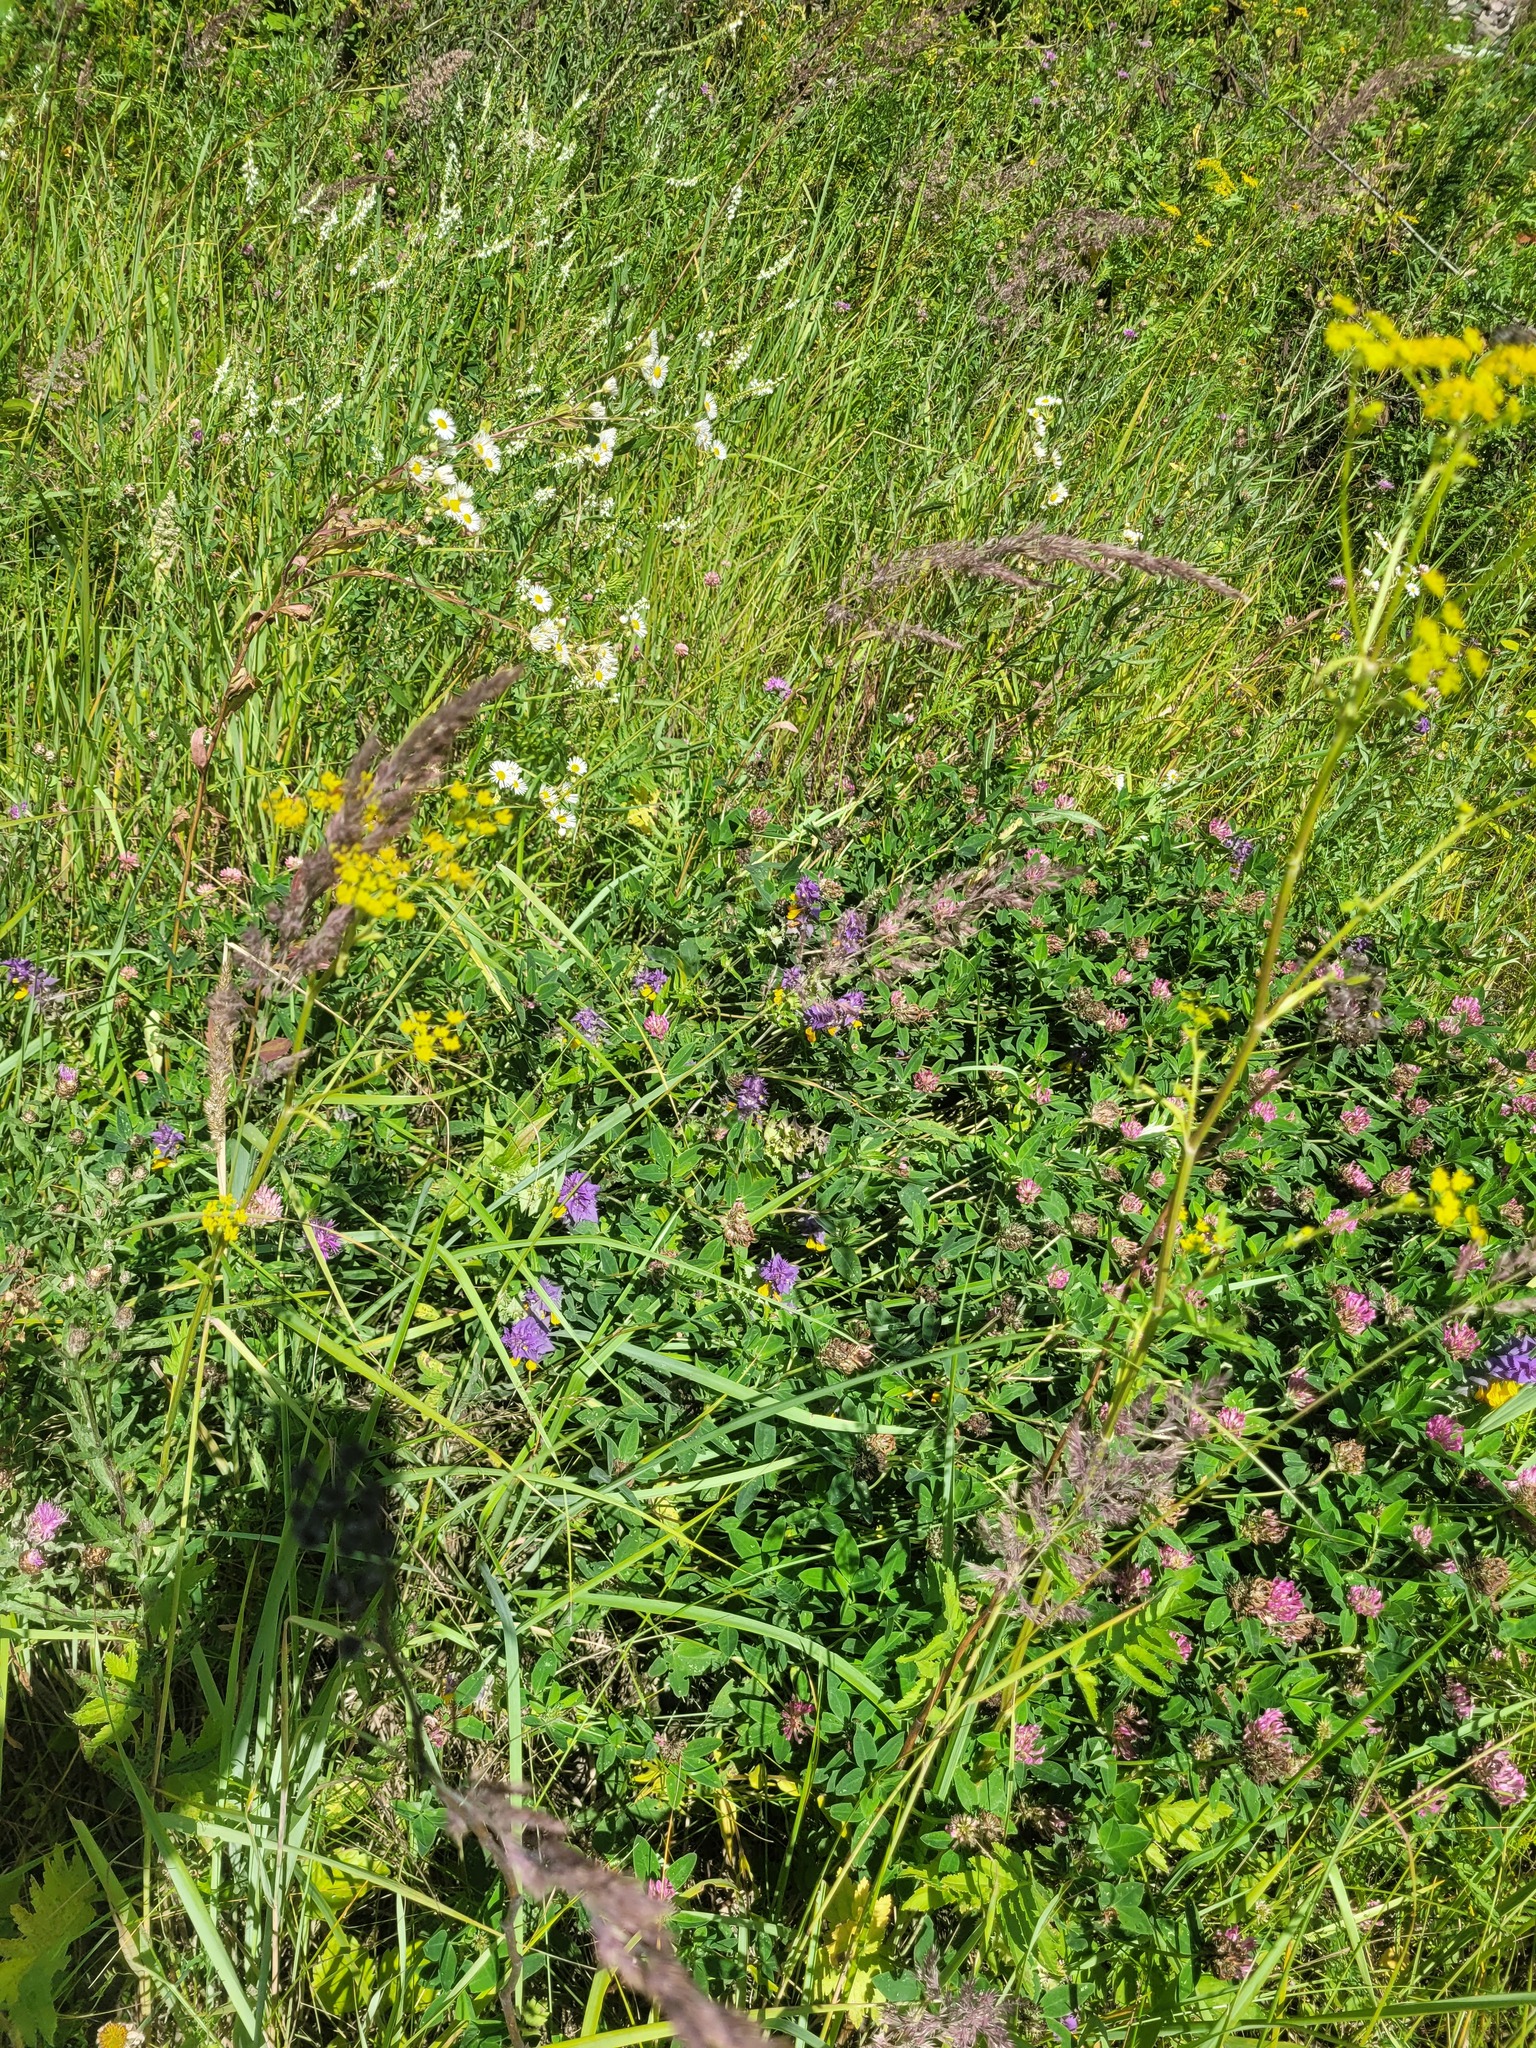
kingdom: Plantae
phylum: Tracheophyta
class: Magnoliopsida
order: Fabales
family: Fabaceae
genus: Trifolium
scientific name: Trifolium medium
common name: Zigzag clover
